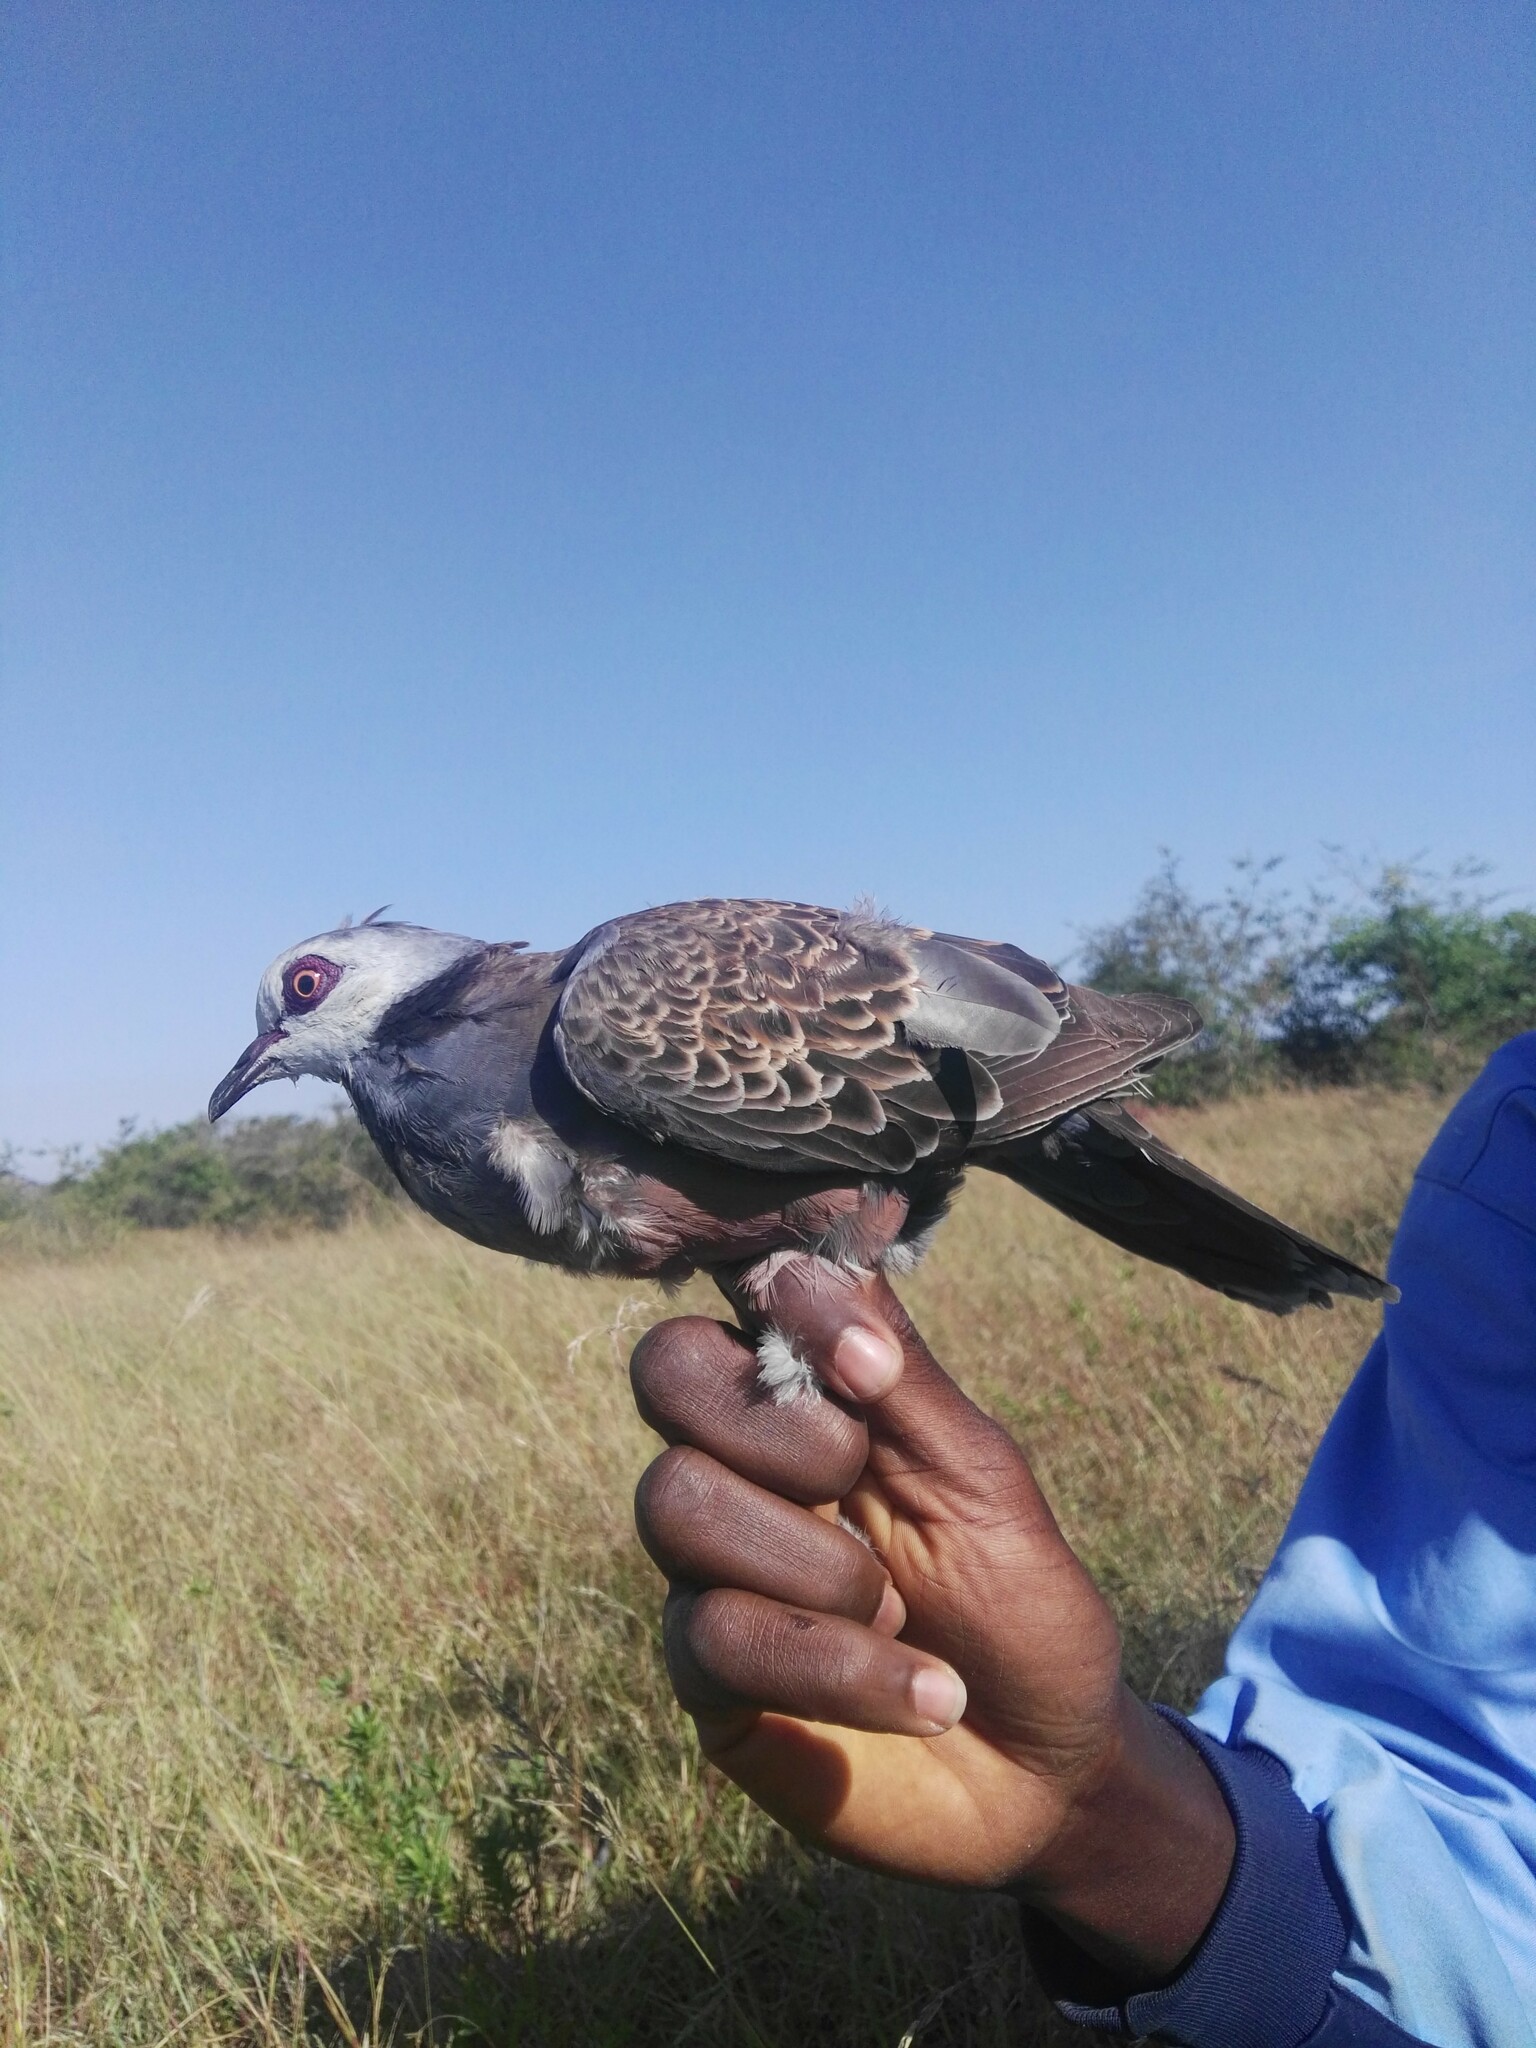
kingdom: Animalia
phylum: Chordata
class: Aves
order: Columbiformes
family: Columbidae
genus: Streptopelia
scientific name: Streptopelia hypopyrrha
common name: Adamawa turtle dove
